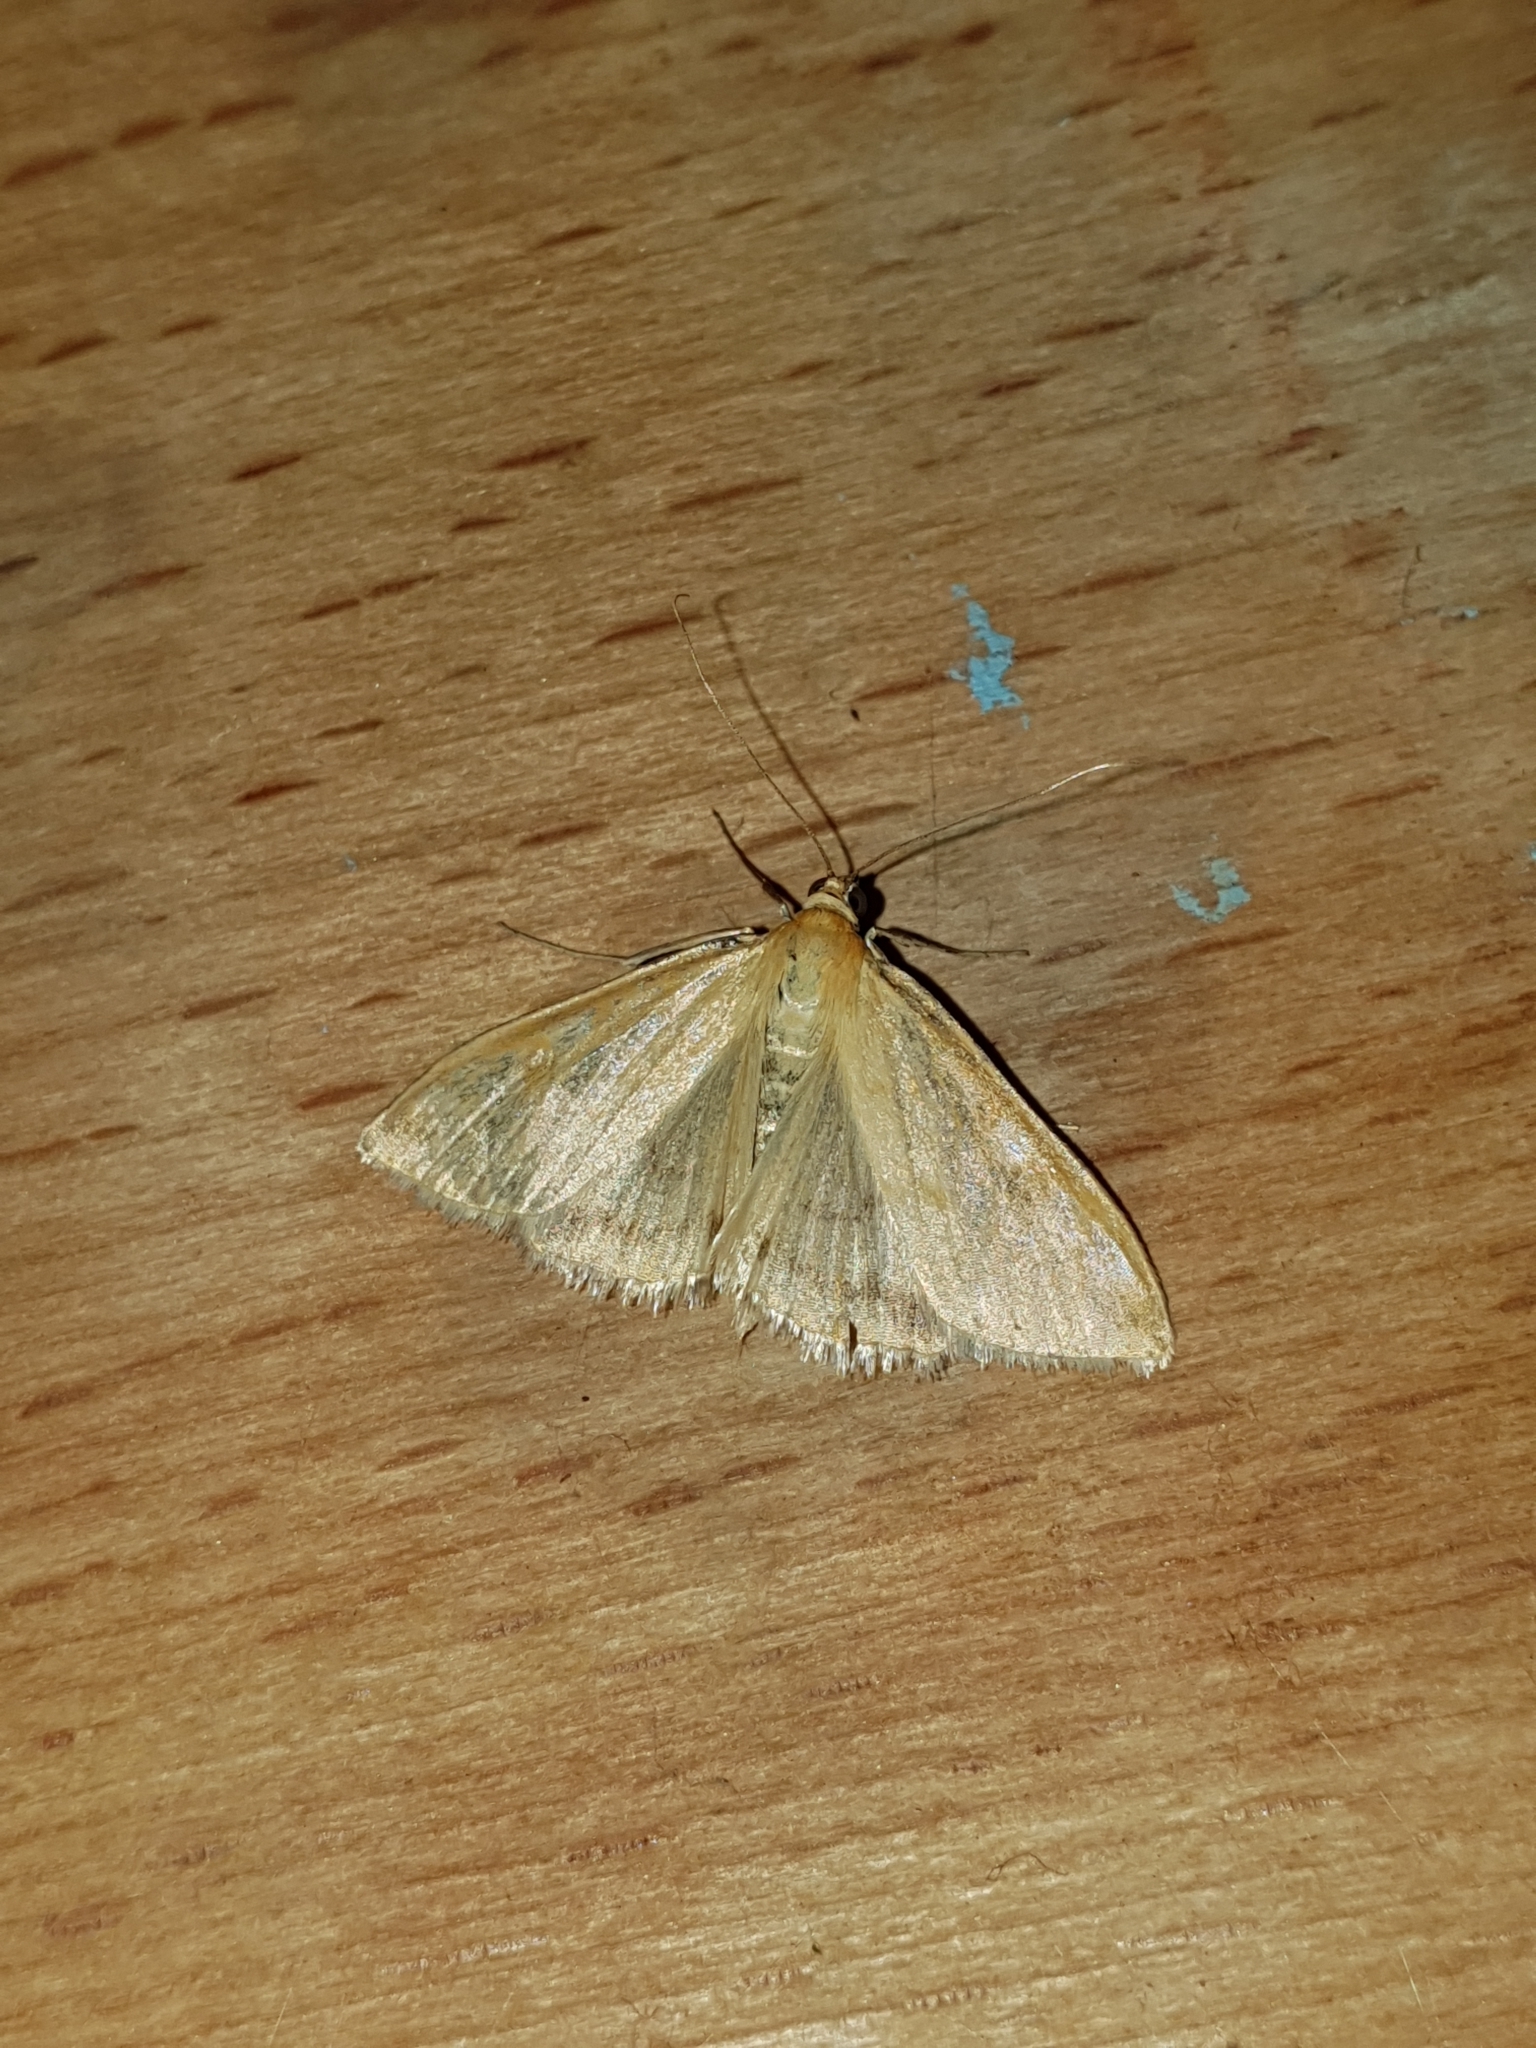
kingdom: Animalia
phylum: Arthropoda
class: Insecta
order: Lepidoptera
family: Crambidae
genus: Sitochroa
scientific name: Sitochroa verticalis
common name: Lesser pearl
